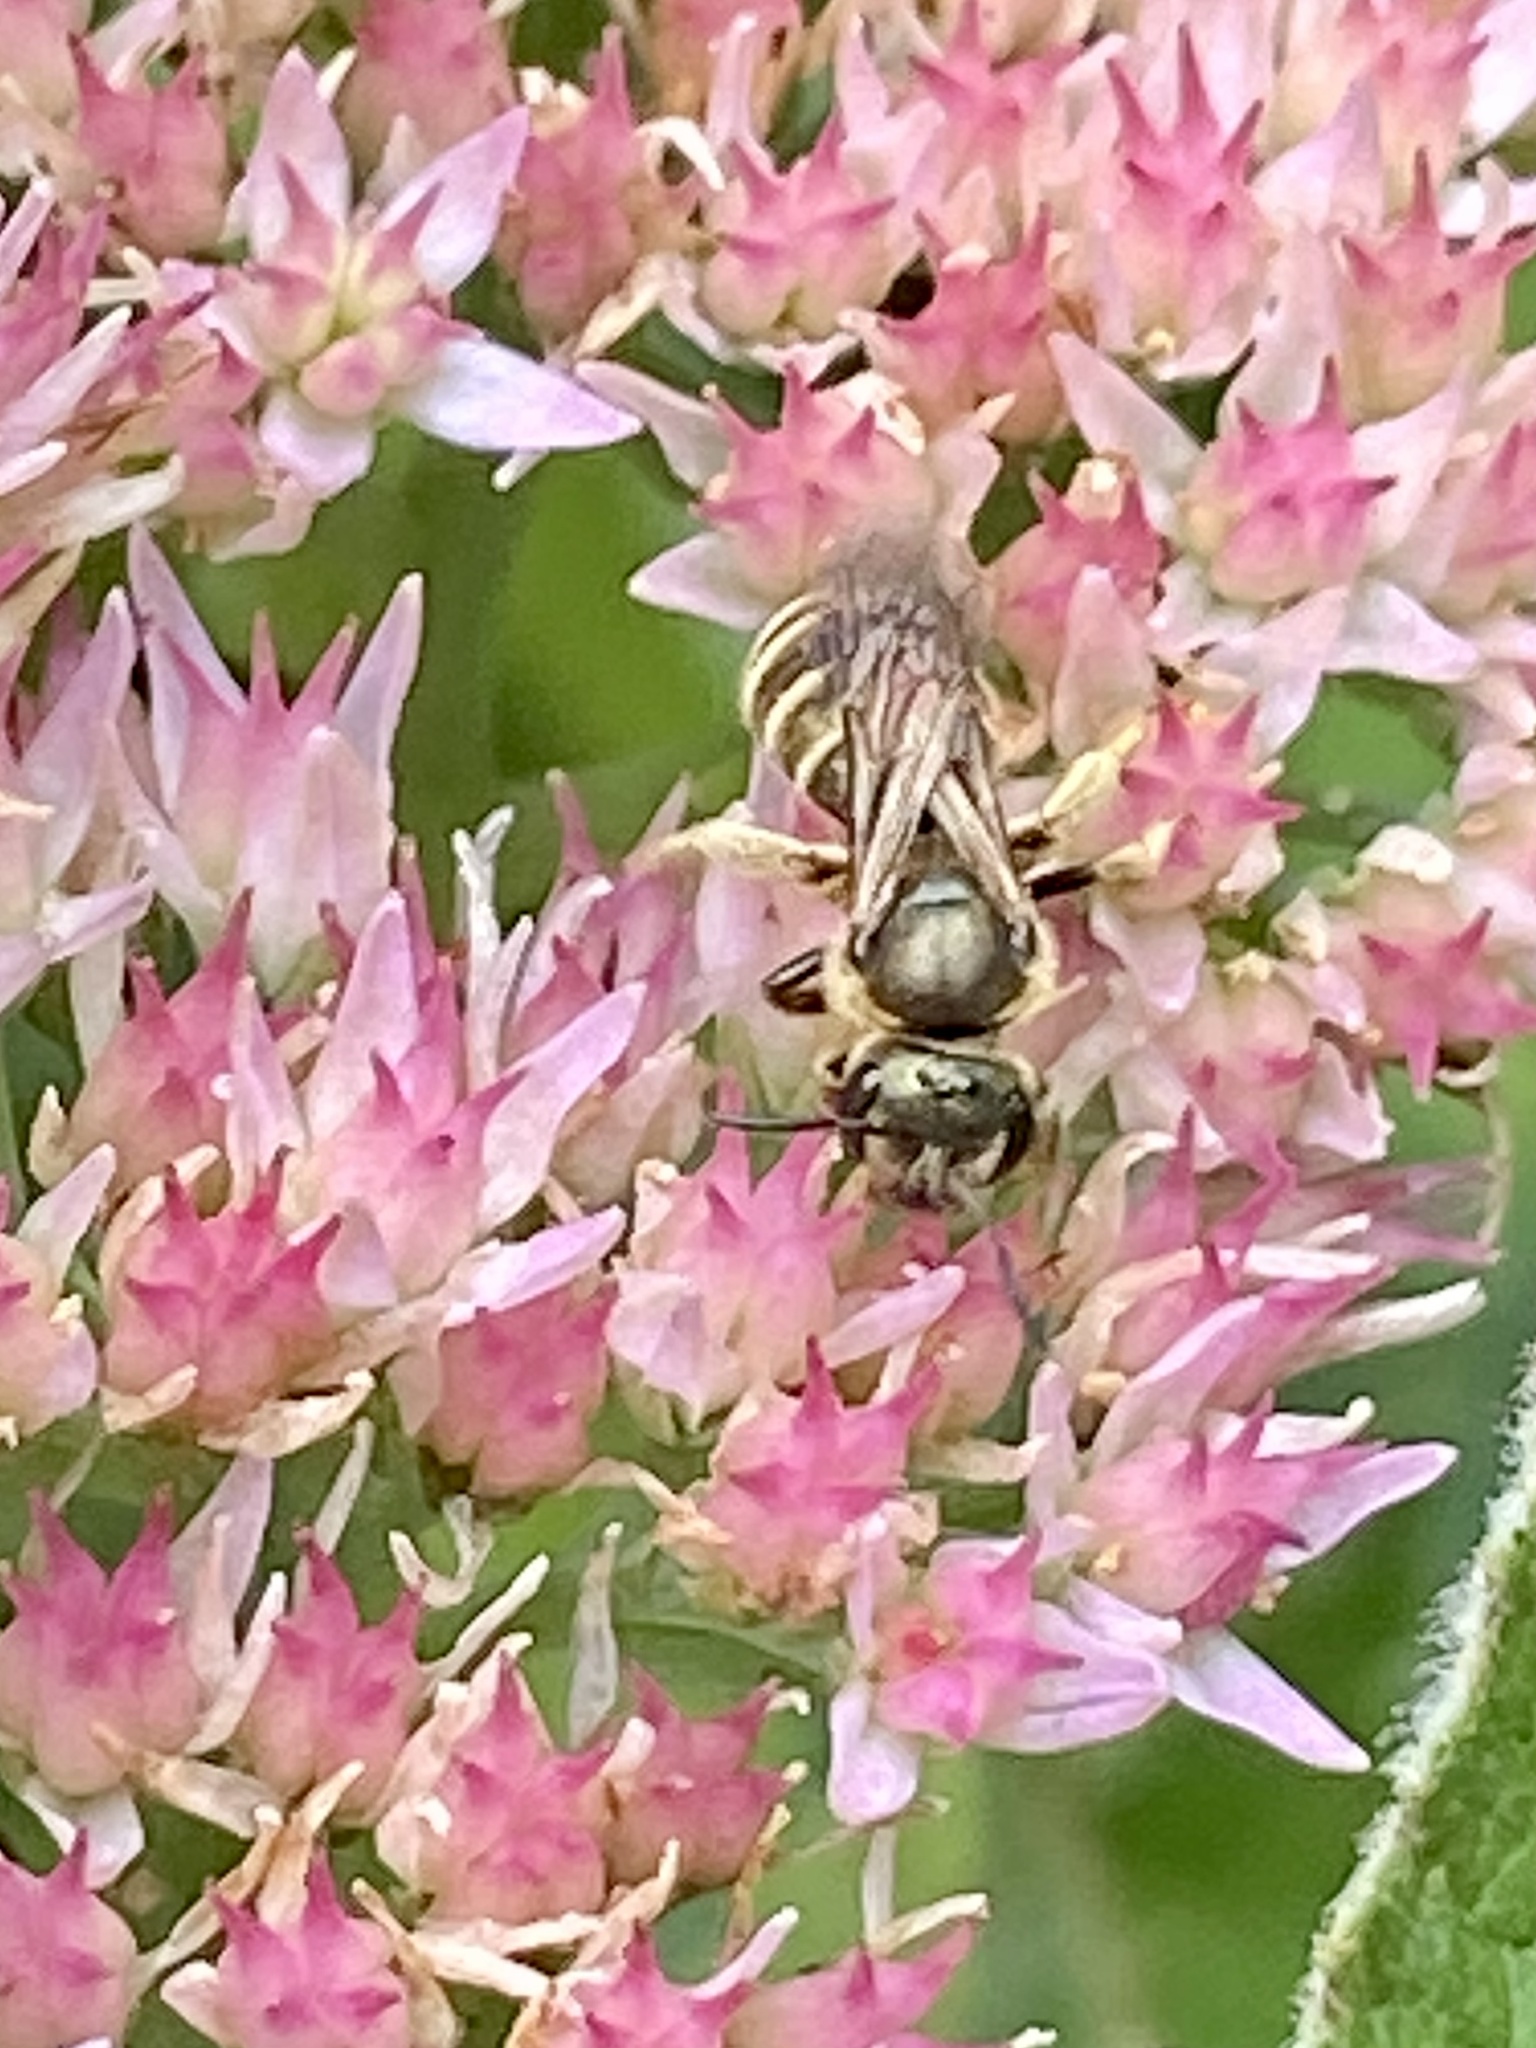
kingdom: Animalia
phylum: Arthropoda
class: Insecta
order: Hymenoptera
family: Halictidae
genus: Halictus
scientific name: Halictus confusus
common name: Southern bronze furrow bee
